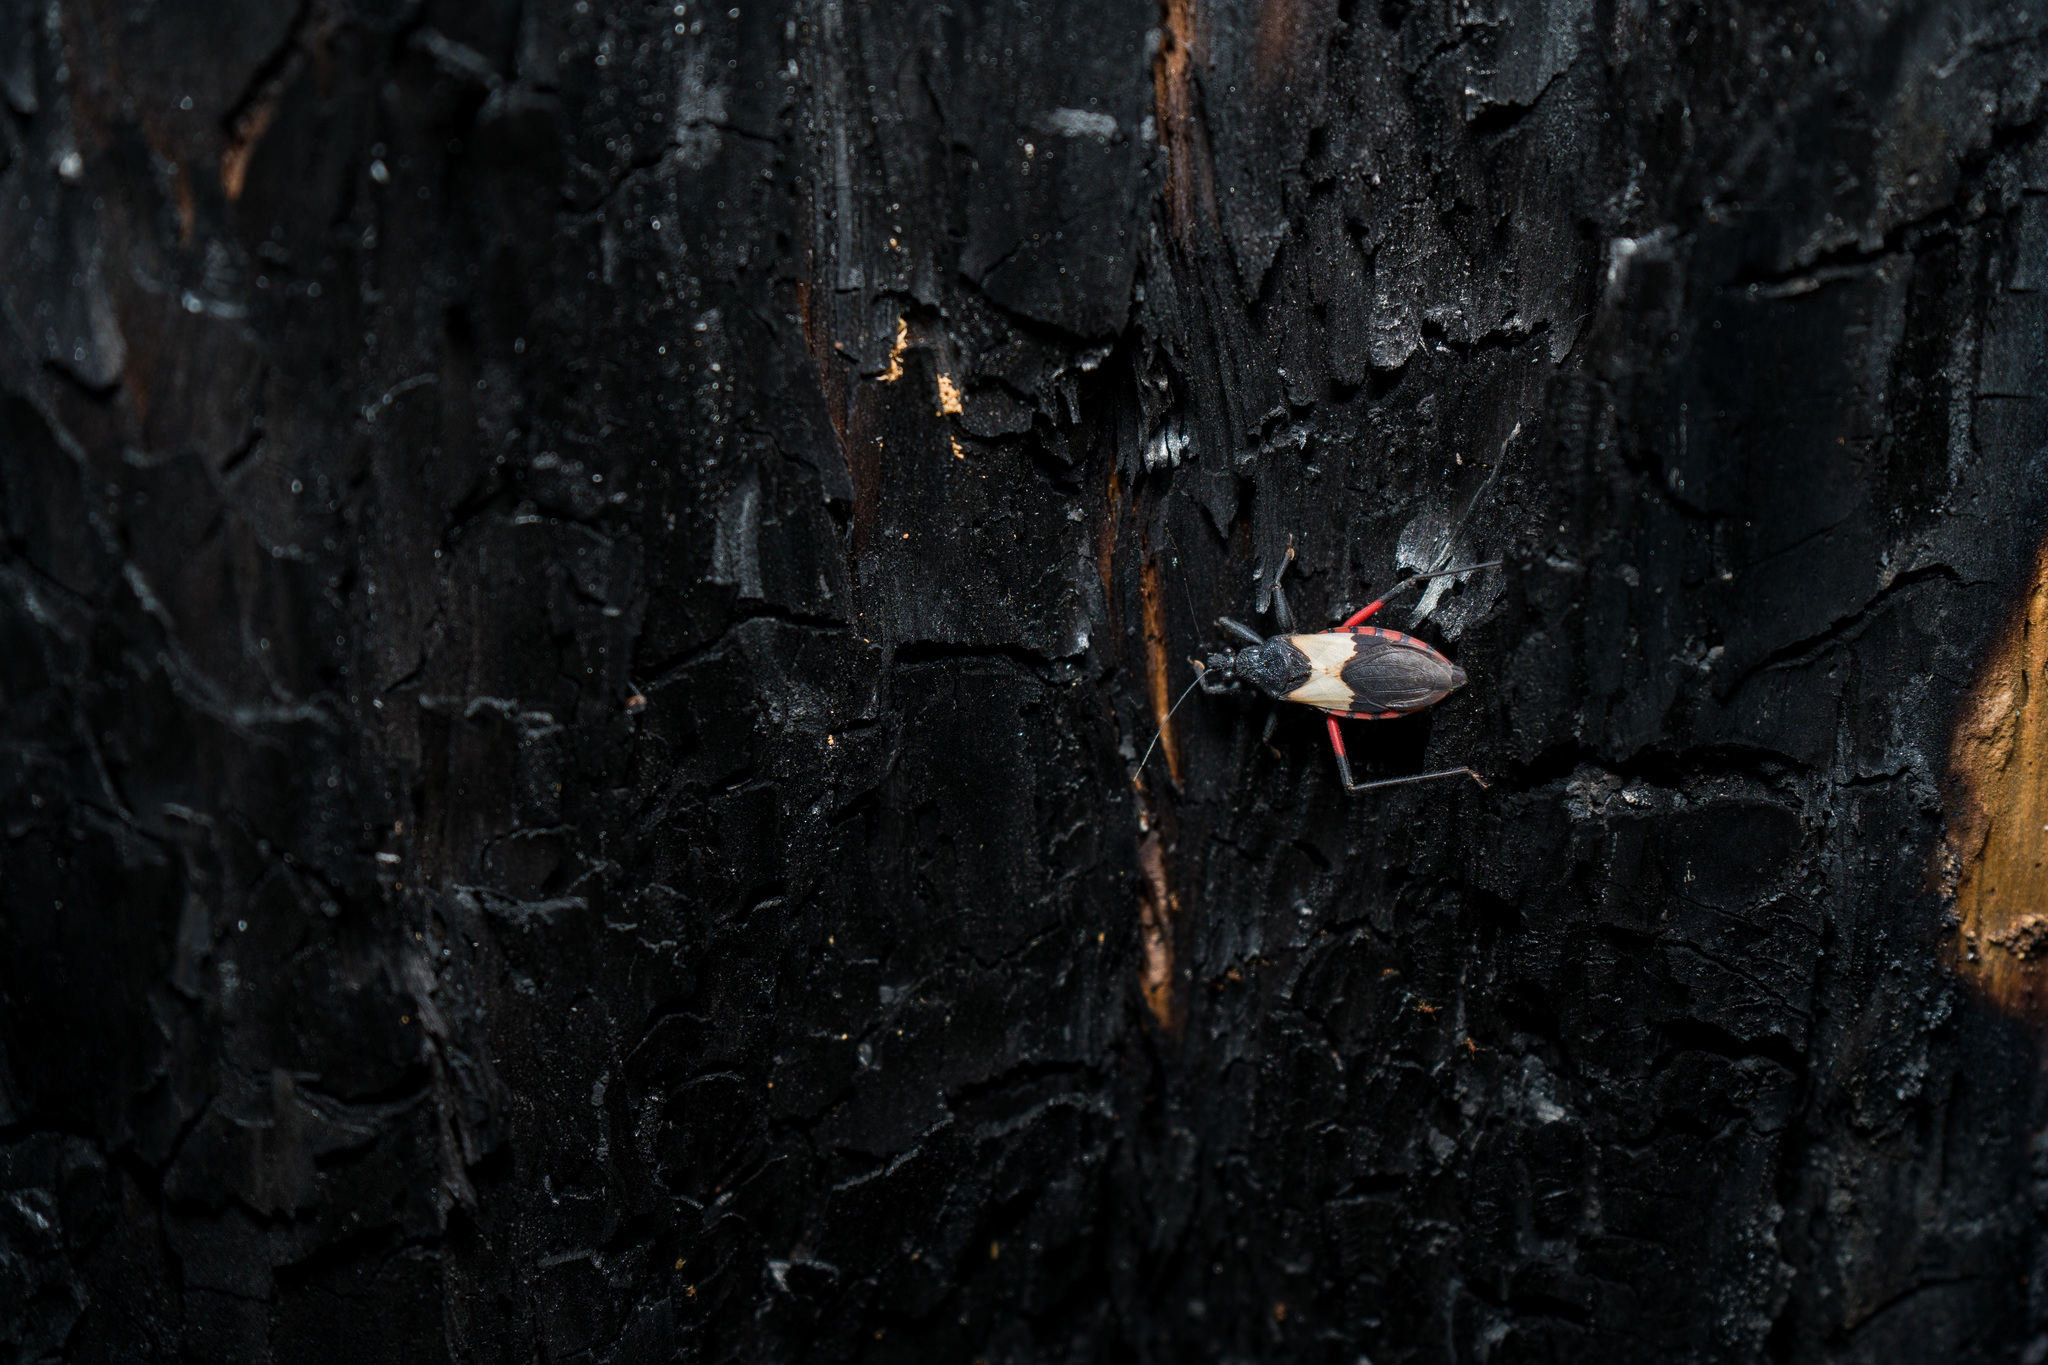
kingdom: Animalia
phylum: Arthropoda
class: Insecta
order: Hemiptera
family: Reduviidae
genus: Microtomus
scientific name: Microtomus purcis
